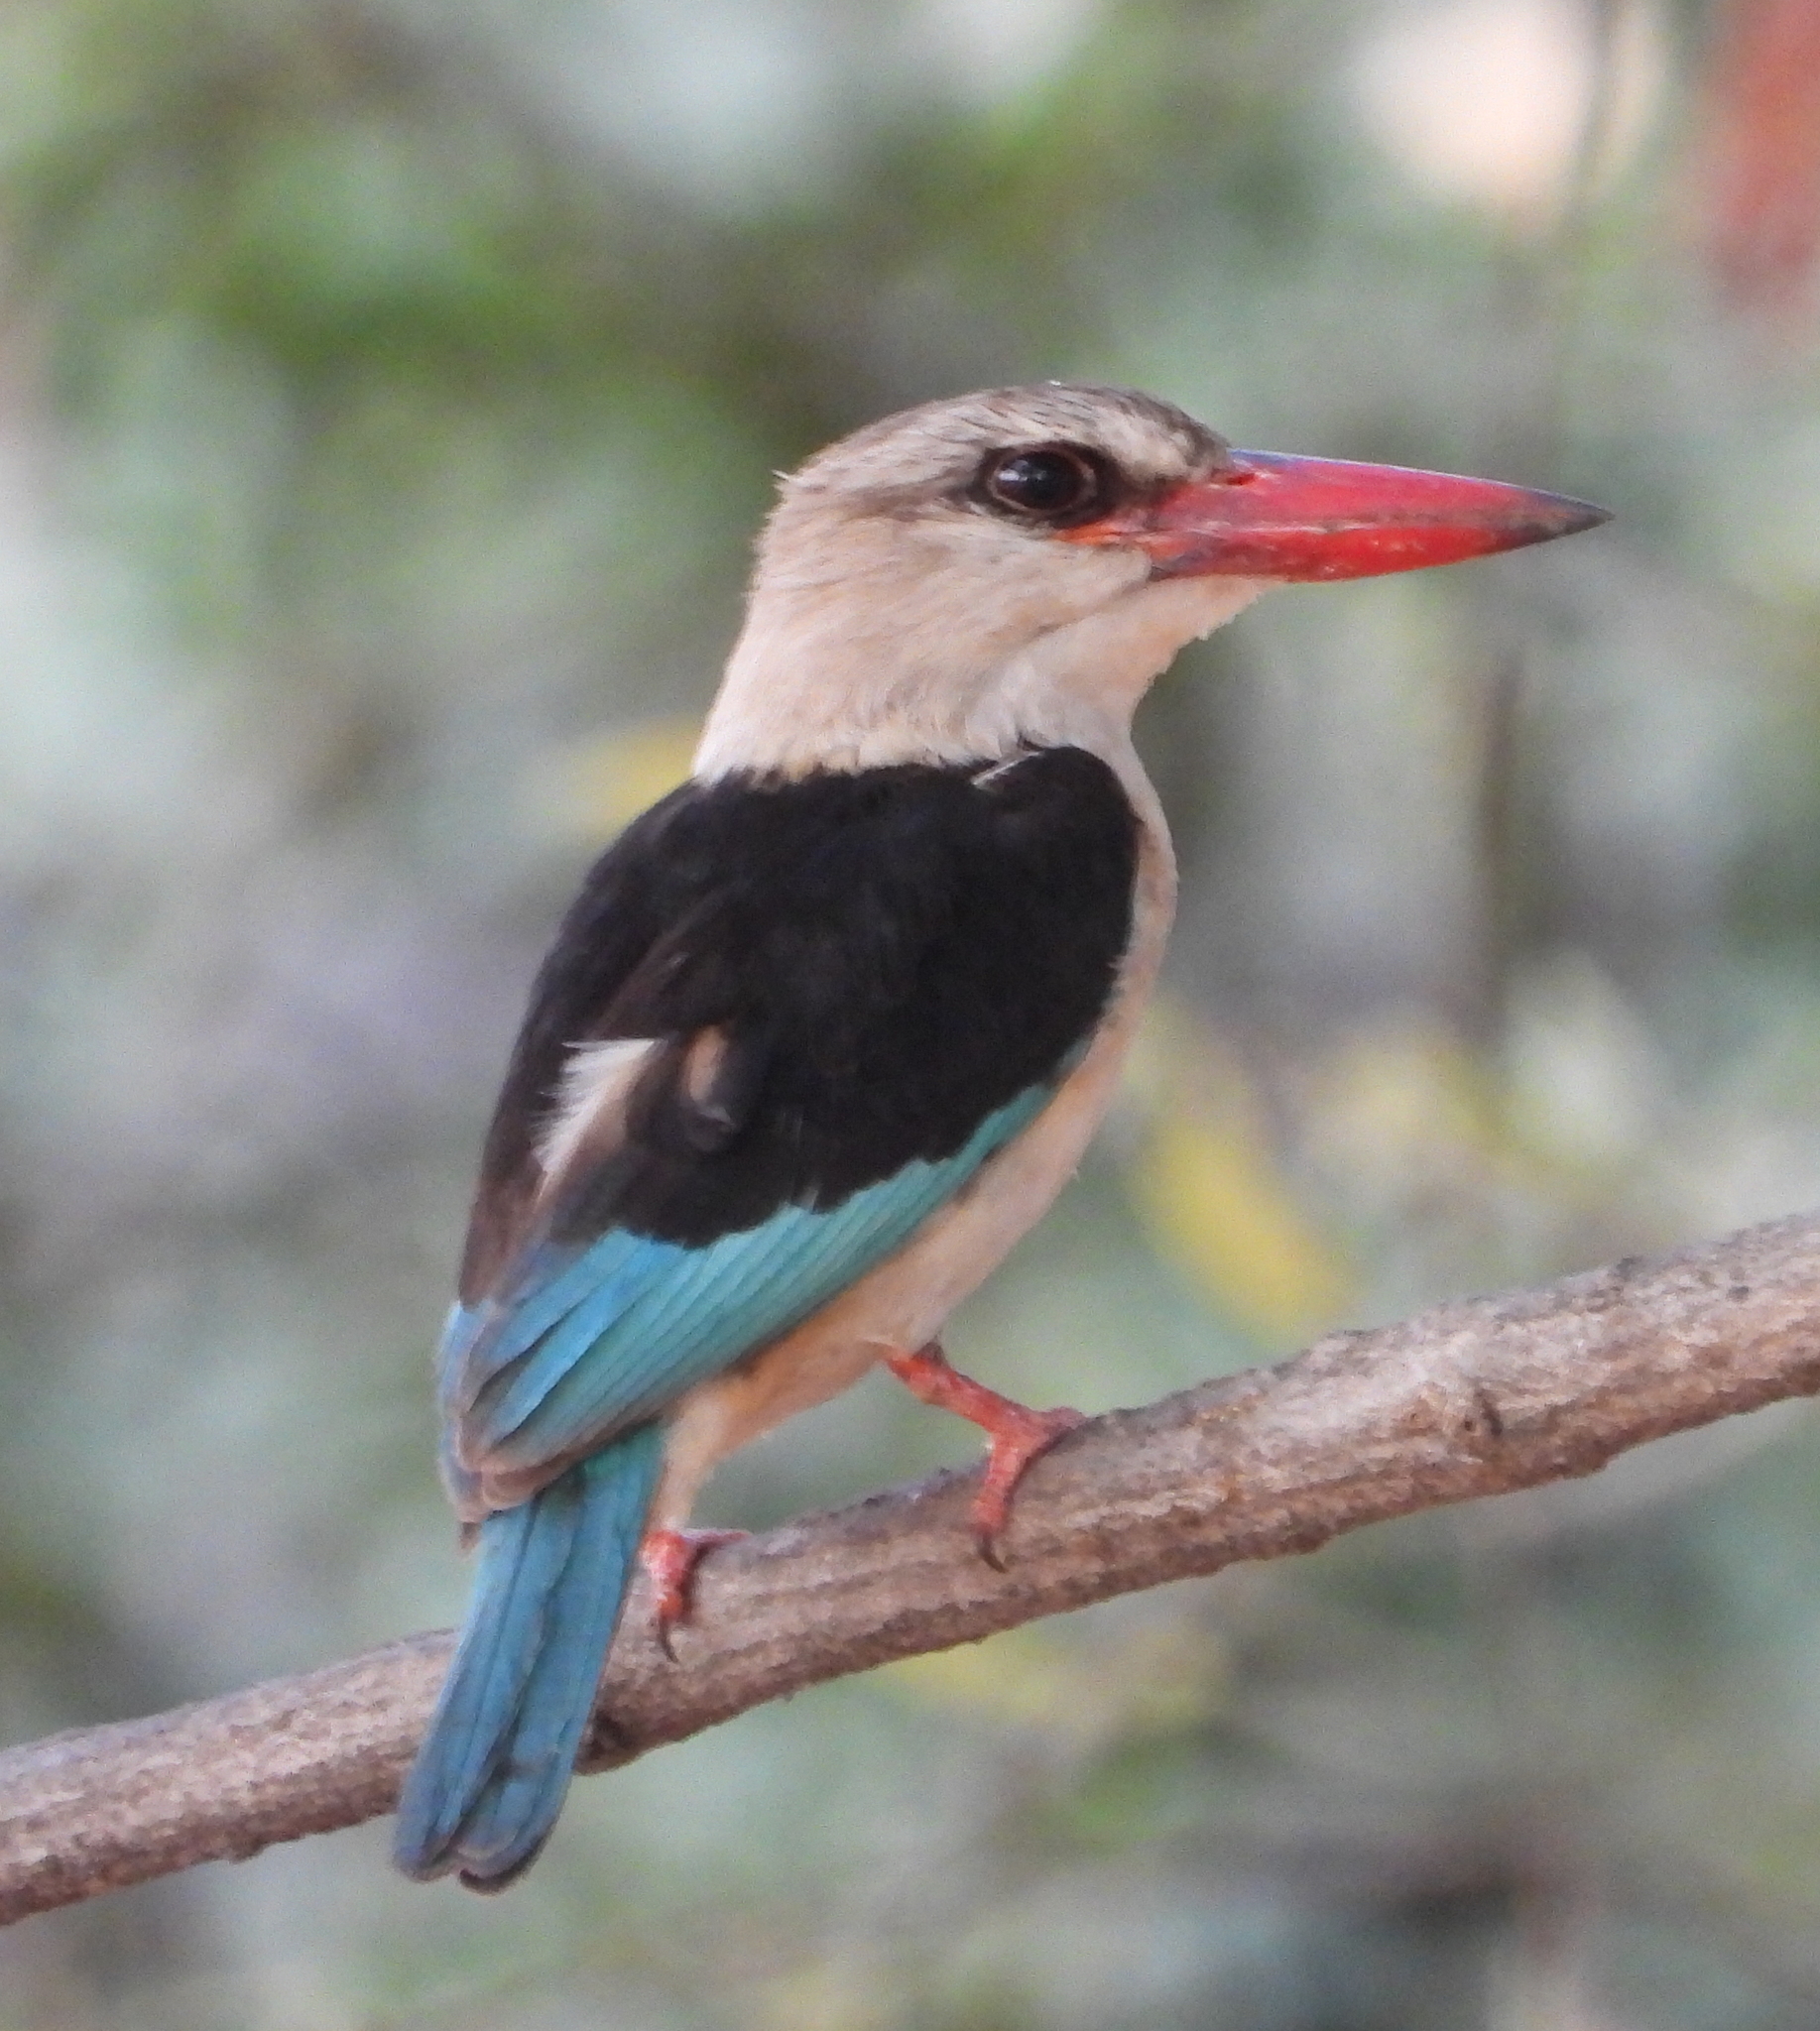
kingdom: Animalia
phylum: Chordata
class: Aves
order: Coraciiformes
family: Alcedinidae
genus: Halcyon
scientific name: Halcyon albiventris
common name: Brown-hooded kingfisher
